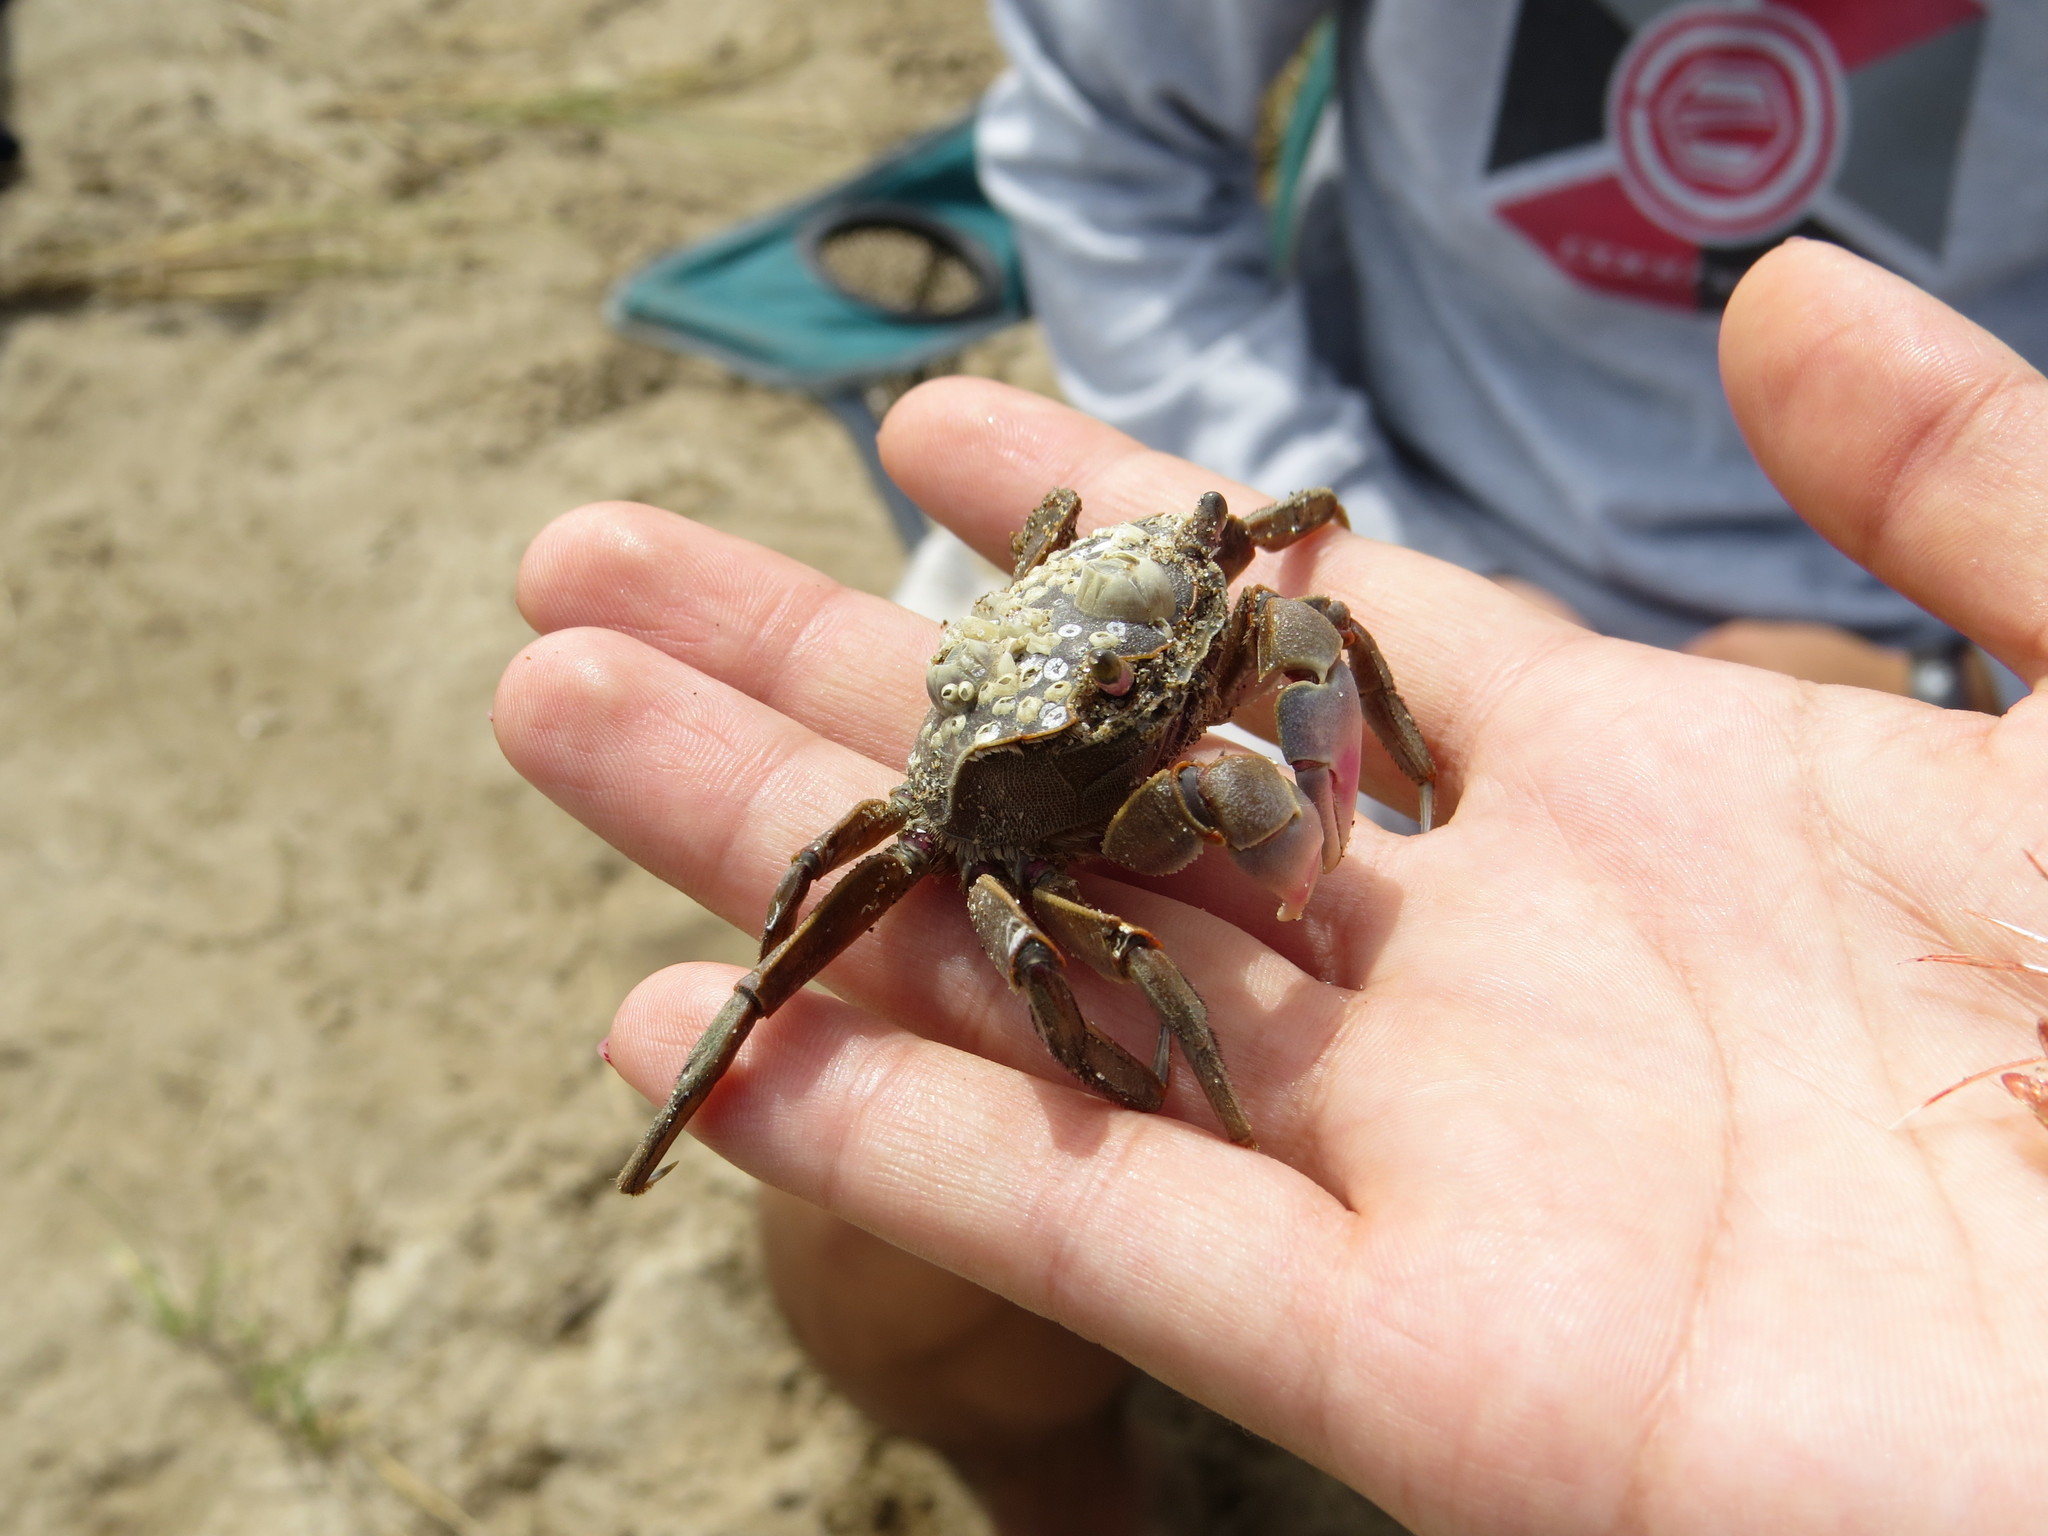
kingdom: Animalia
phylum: Arthropoda
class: Malacostraca
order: Decapoda
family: Varunidae
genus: Neohelice
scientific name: Neohelice granulata
